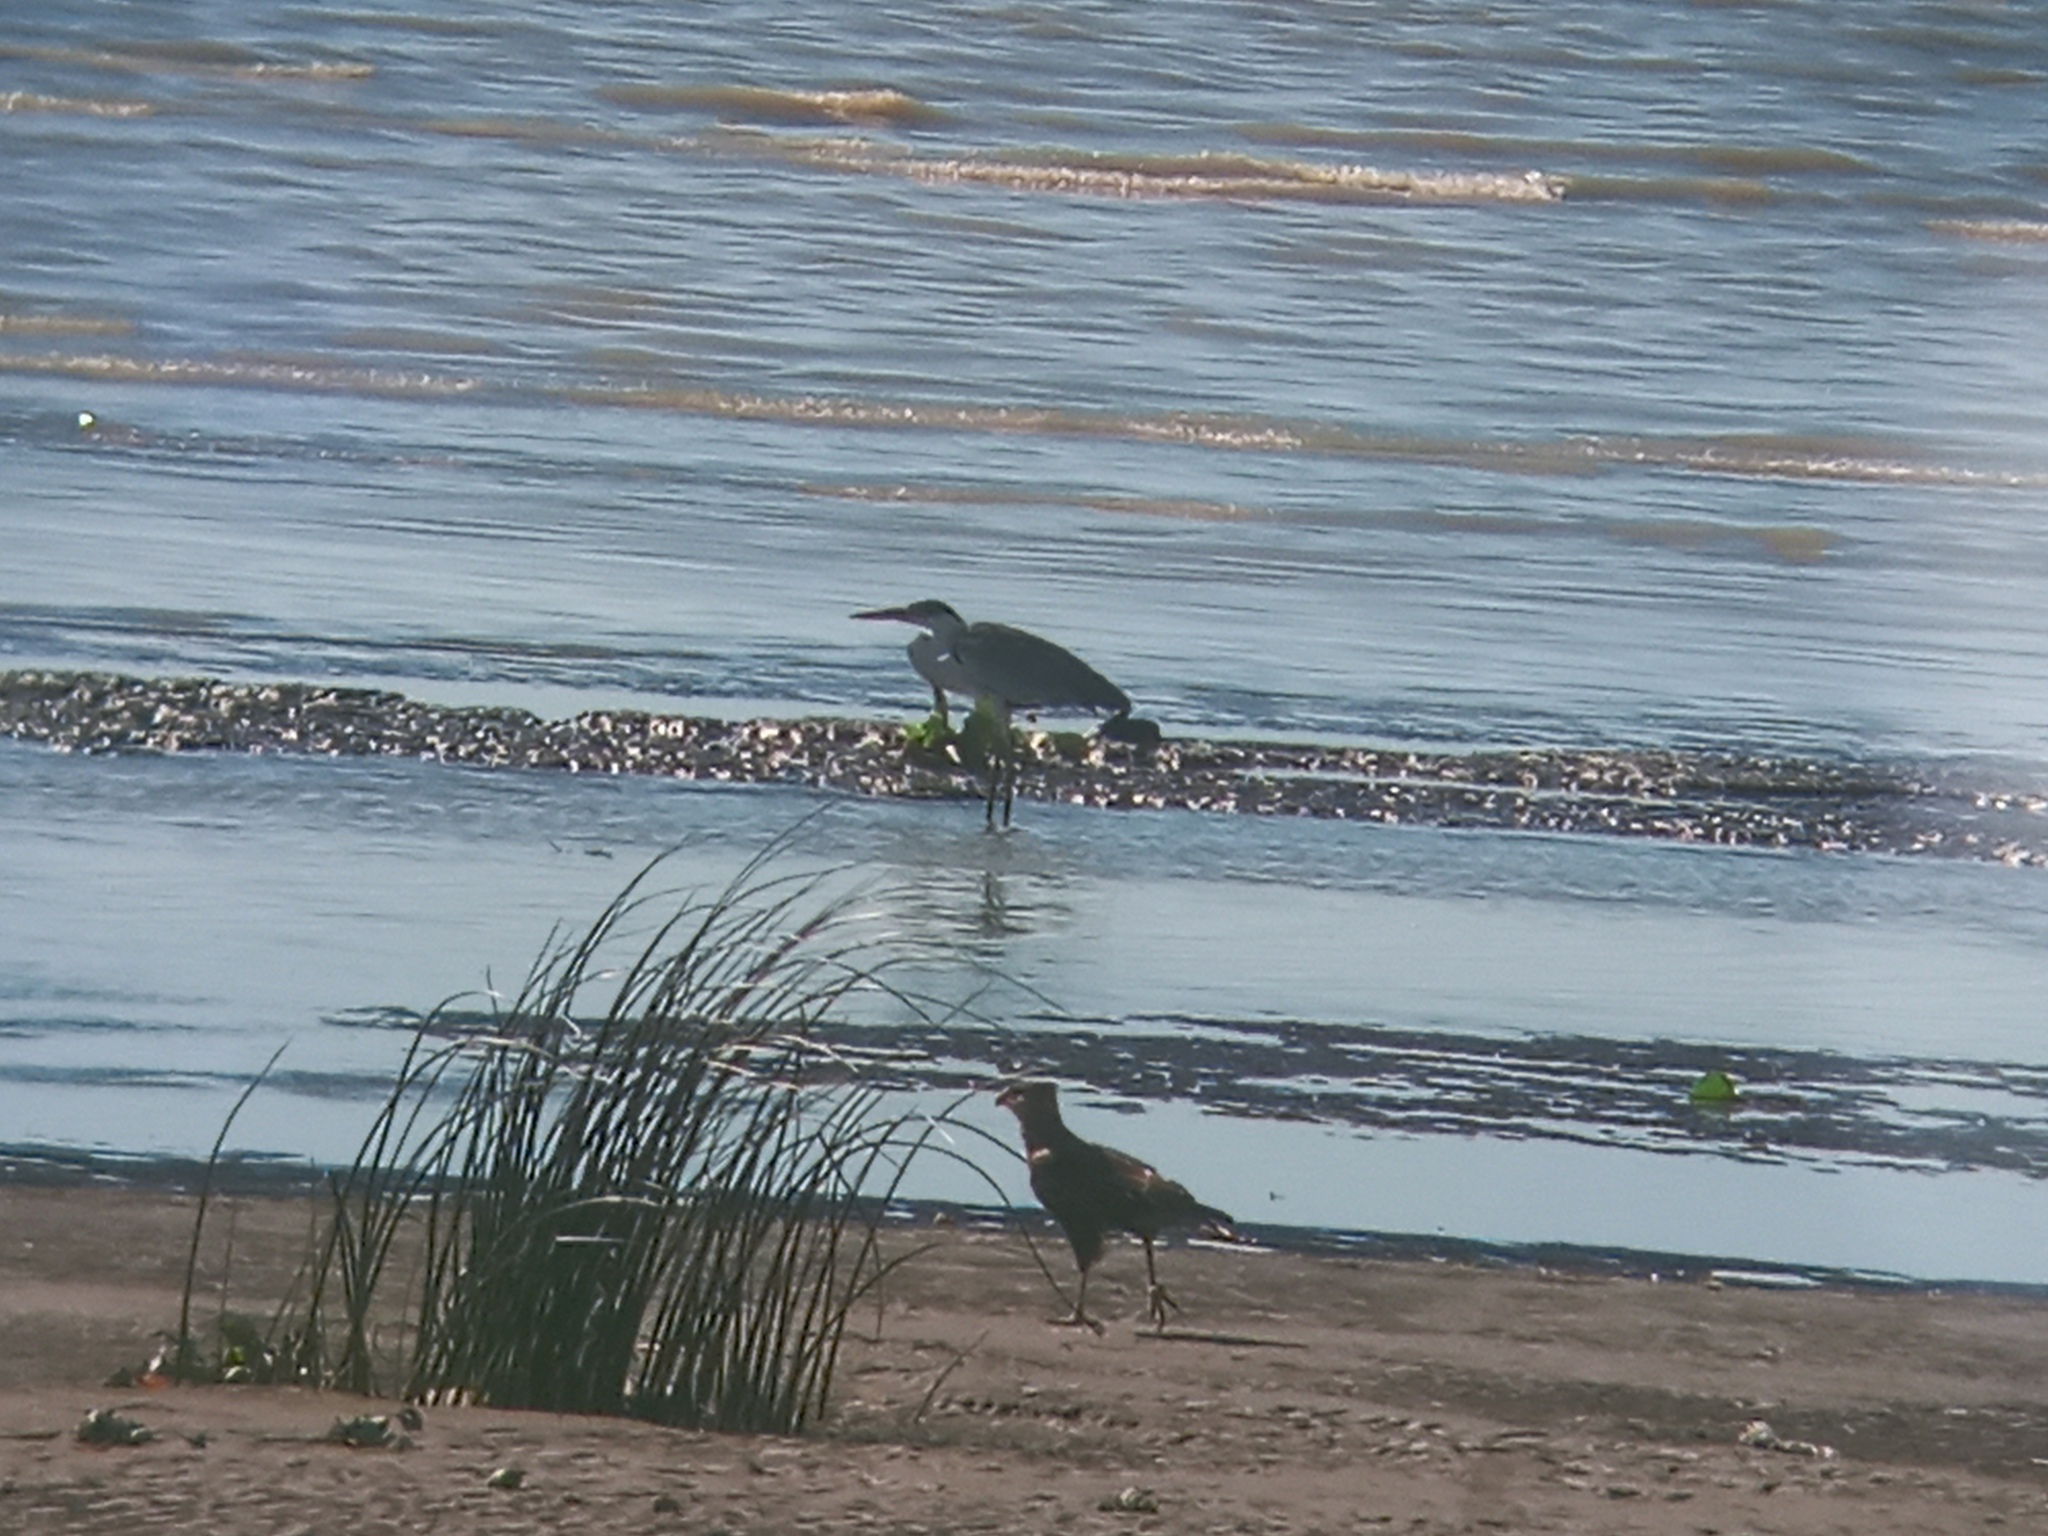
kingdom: Animalia
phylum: Chordata
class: Aves
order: Pelecaniformes
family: Ardeidae
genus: Ardea
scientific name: Ardea cocoi
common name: Cocoi heron
